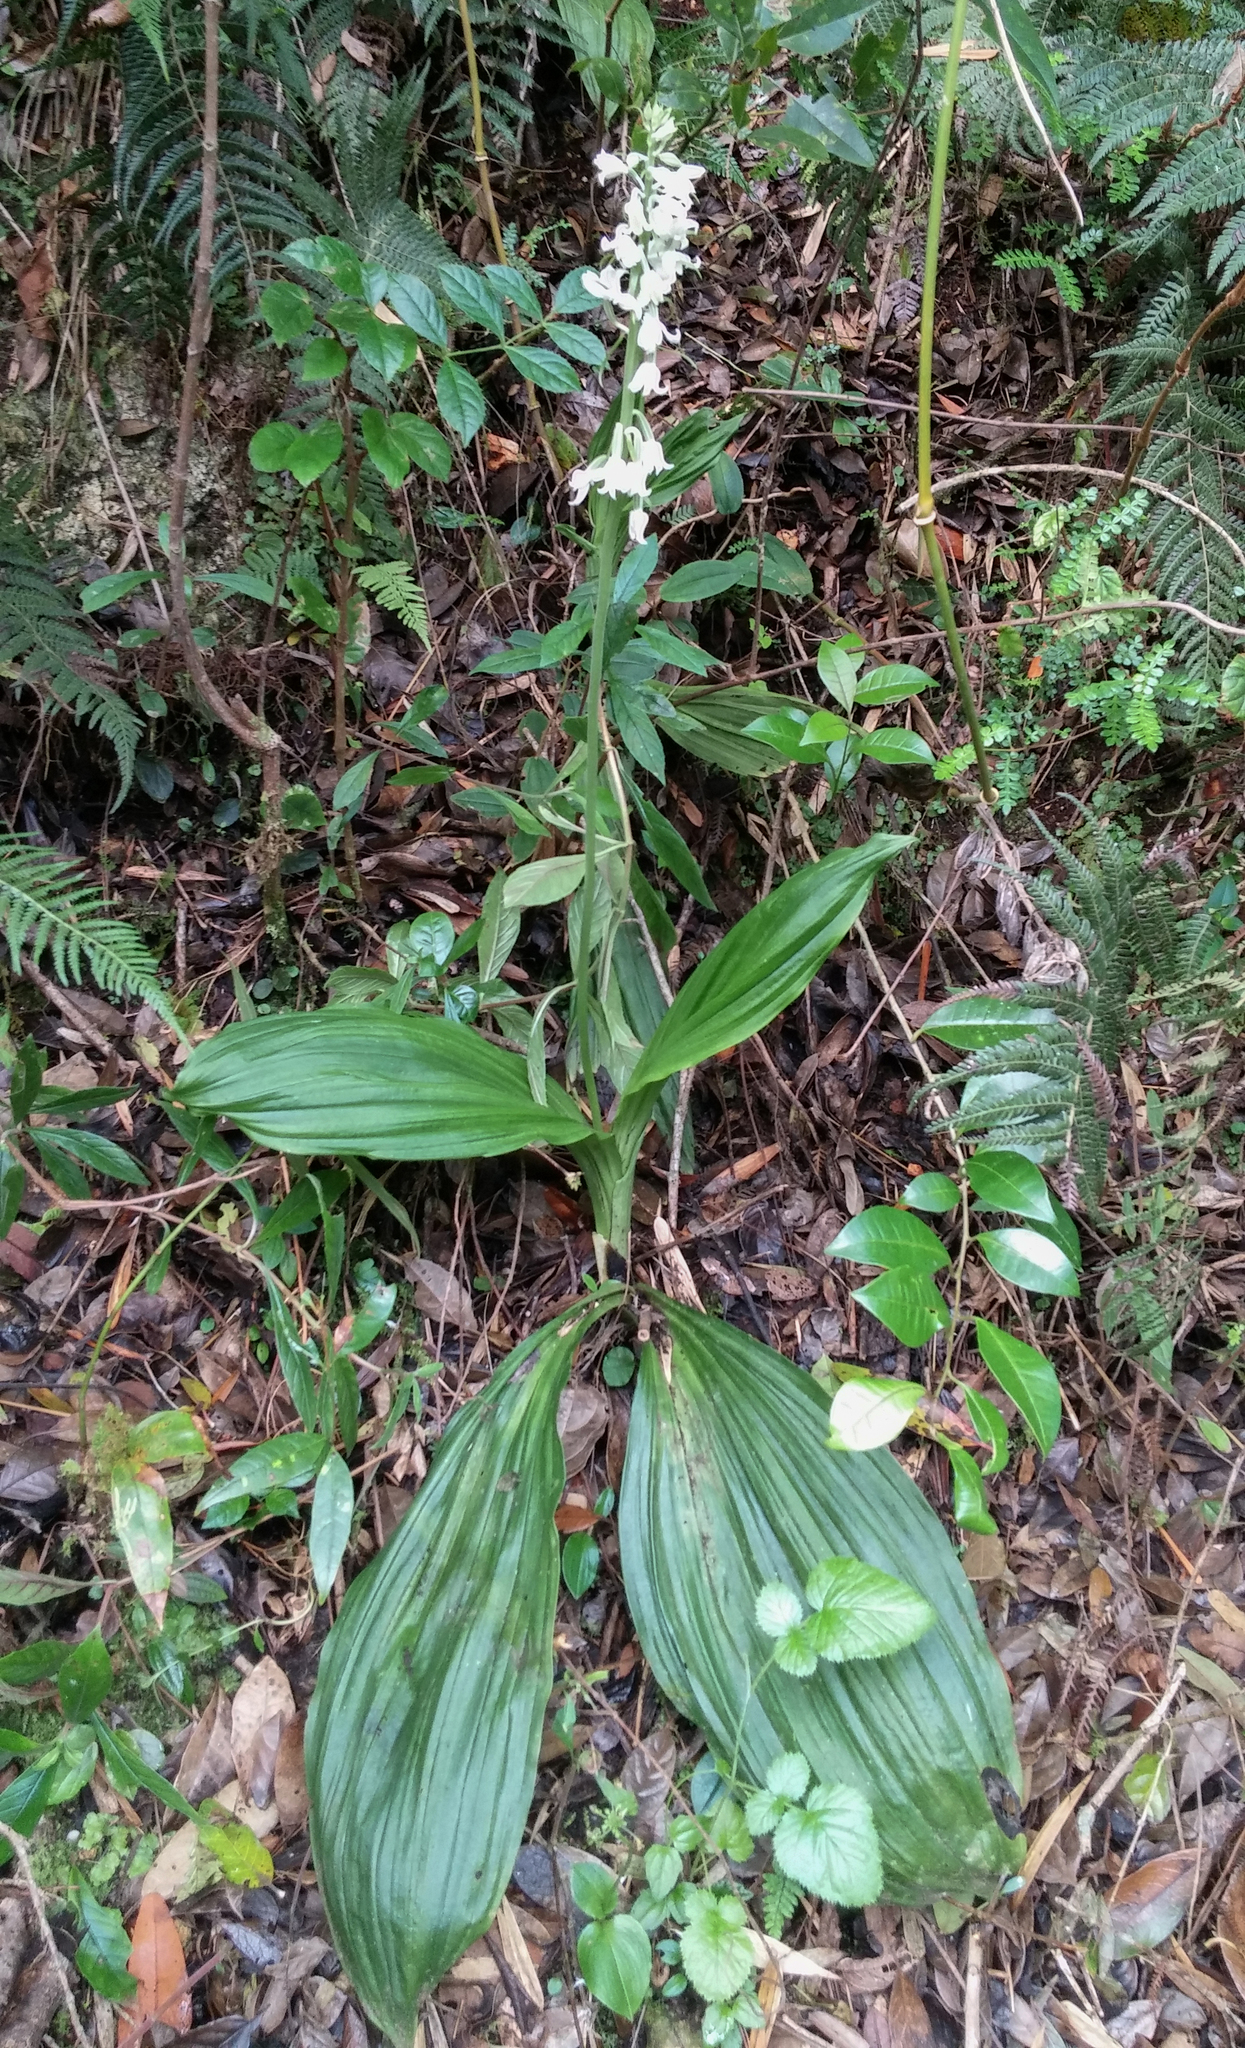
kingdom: Plantae
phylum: Tracheophyta
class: Liliopsida
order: Asparagales
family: Orchidaceae
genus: Calanthe
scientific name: Calanthe calanthoides
